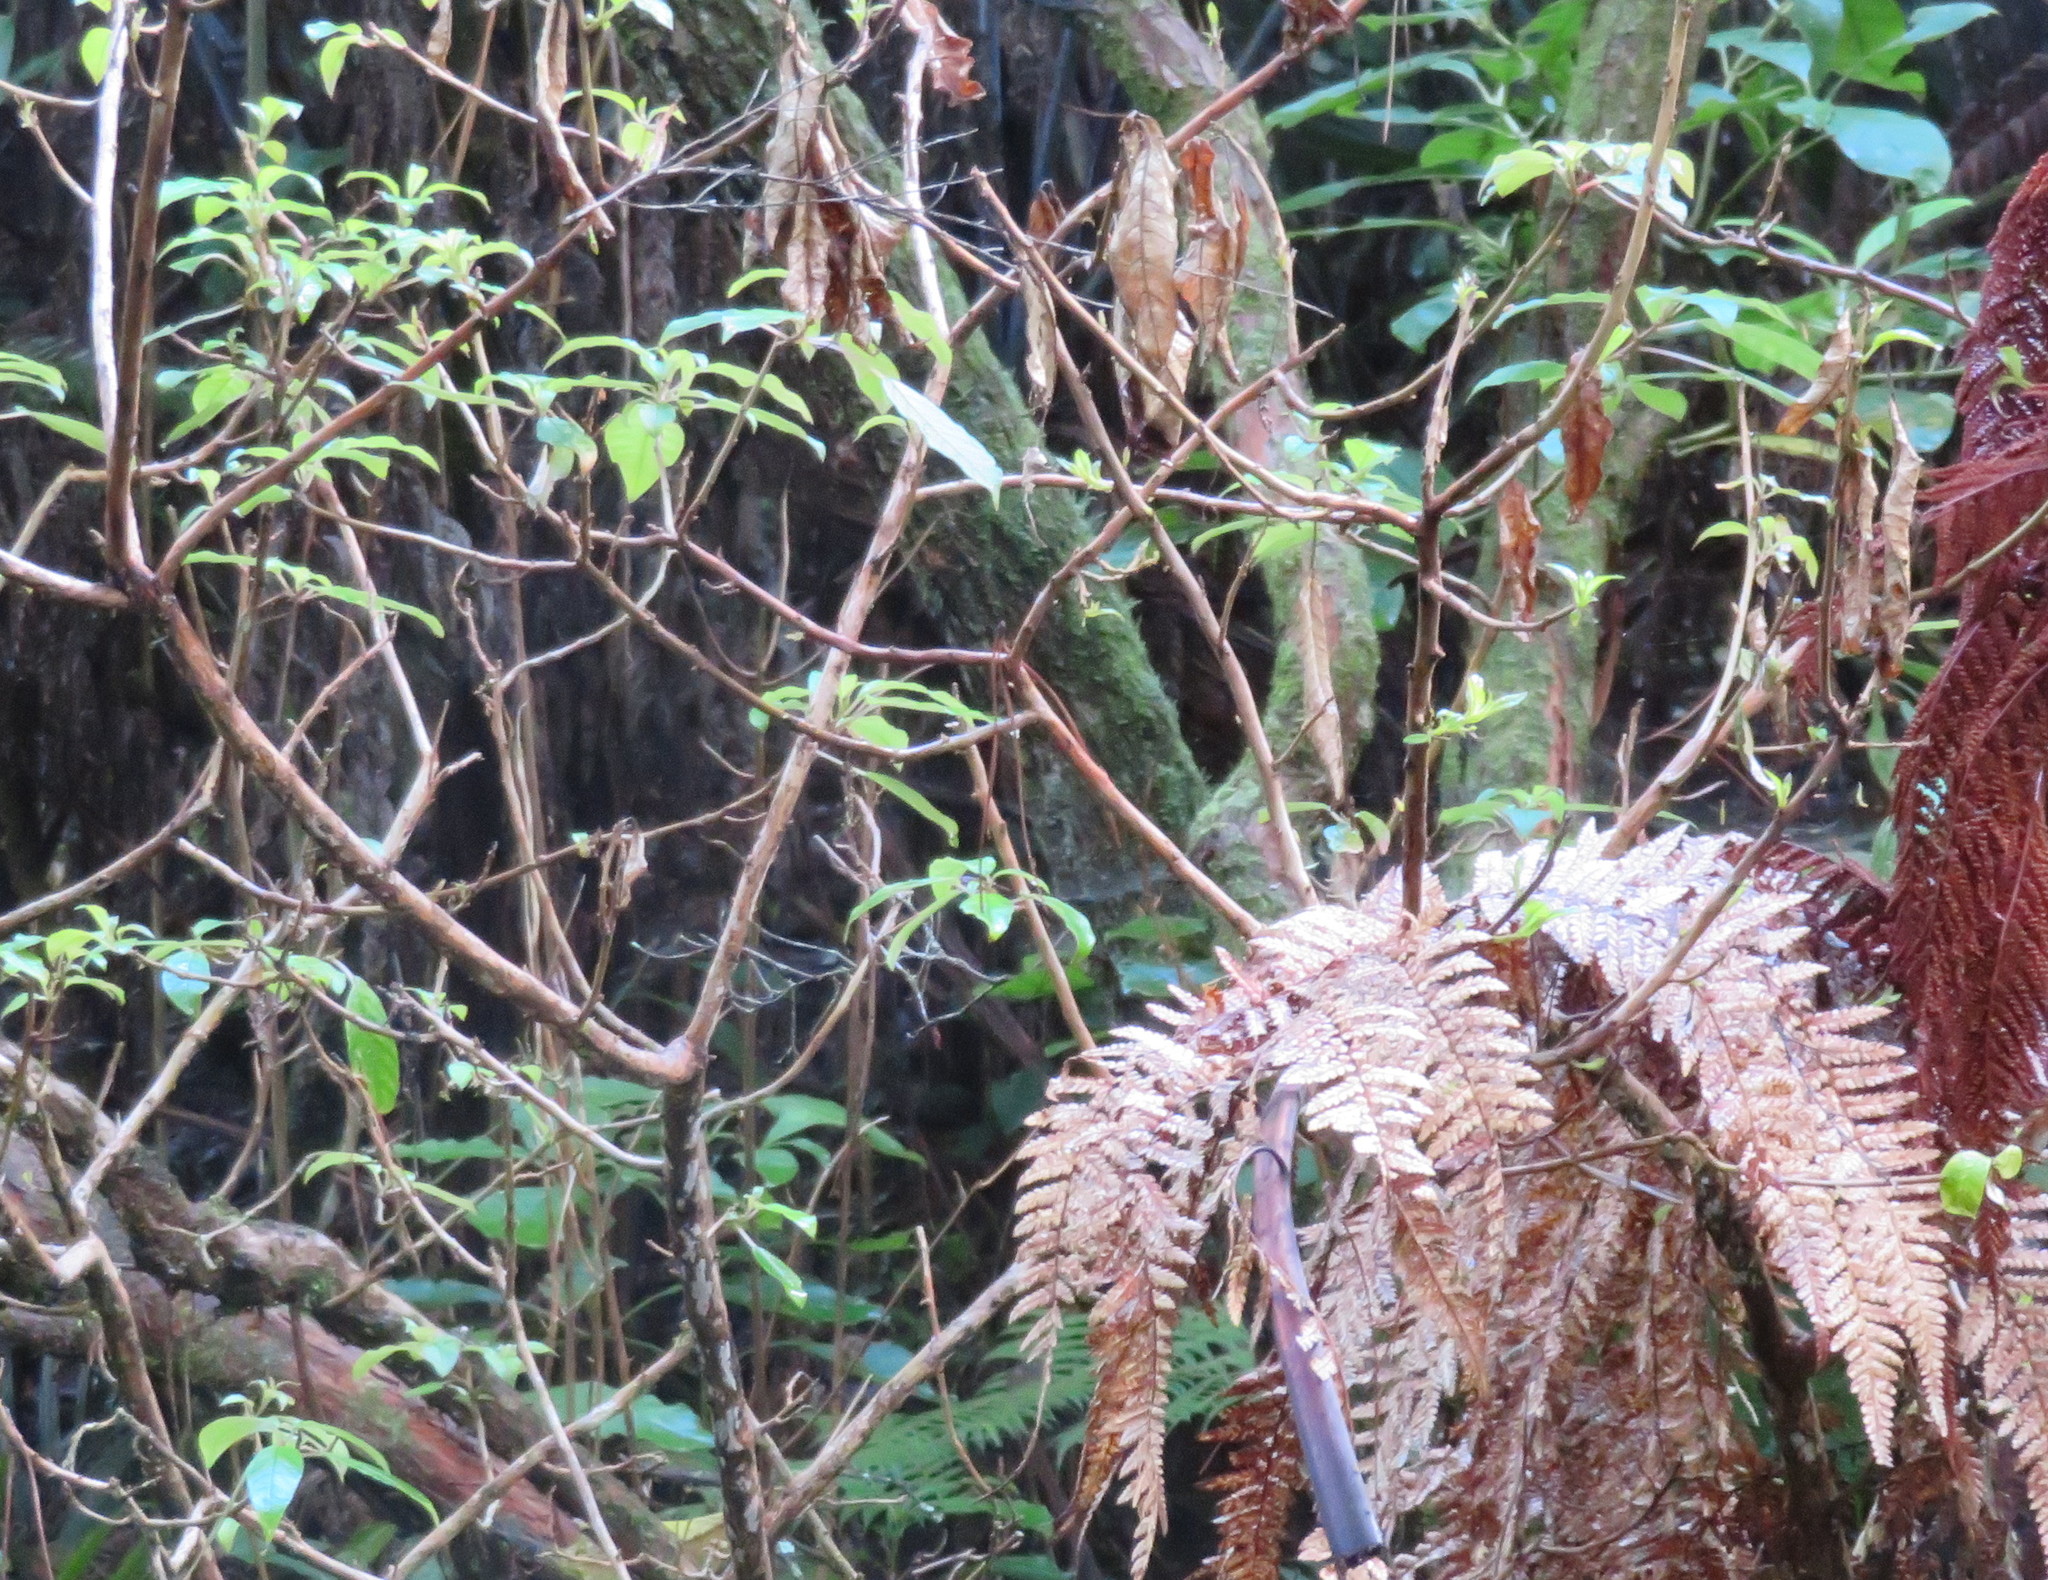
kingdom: Plantae
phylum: Tracheophyta
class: Magnoliopsida
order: Myrtales
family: Onagraceae
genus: Fuchsia
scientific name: Fuchsia excorticata
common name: Tree fuchsia
